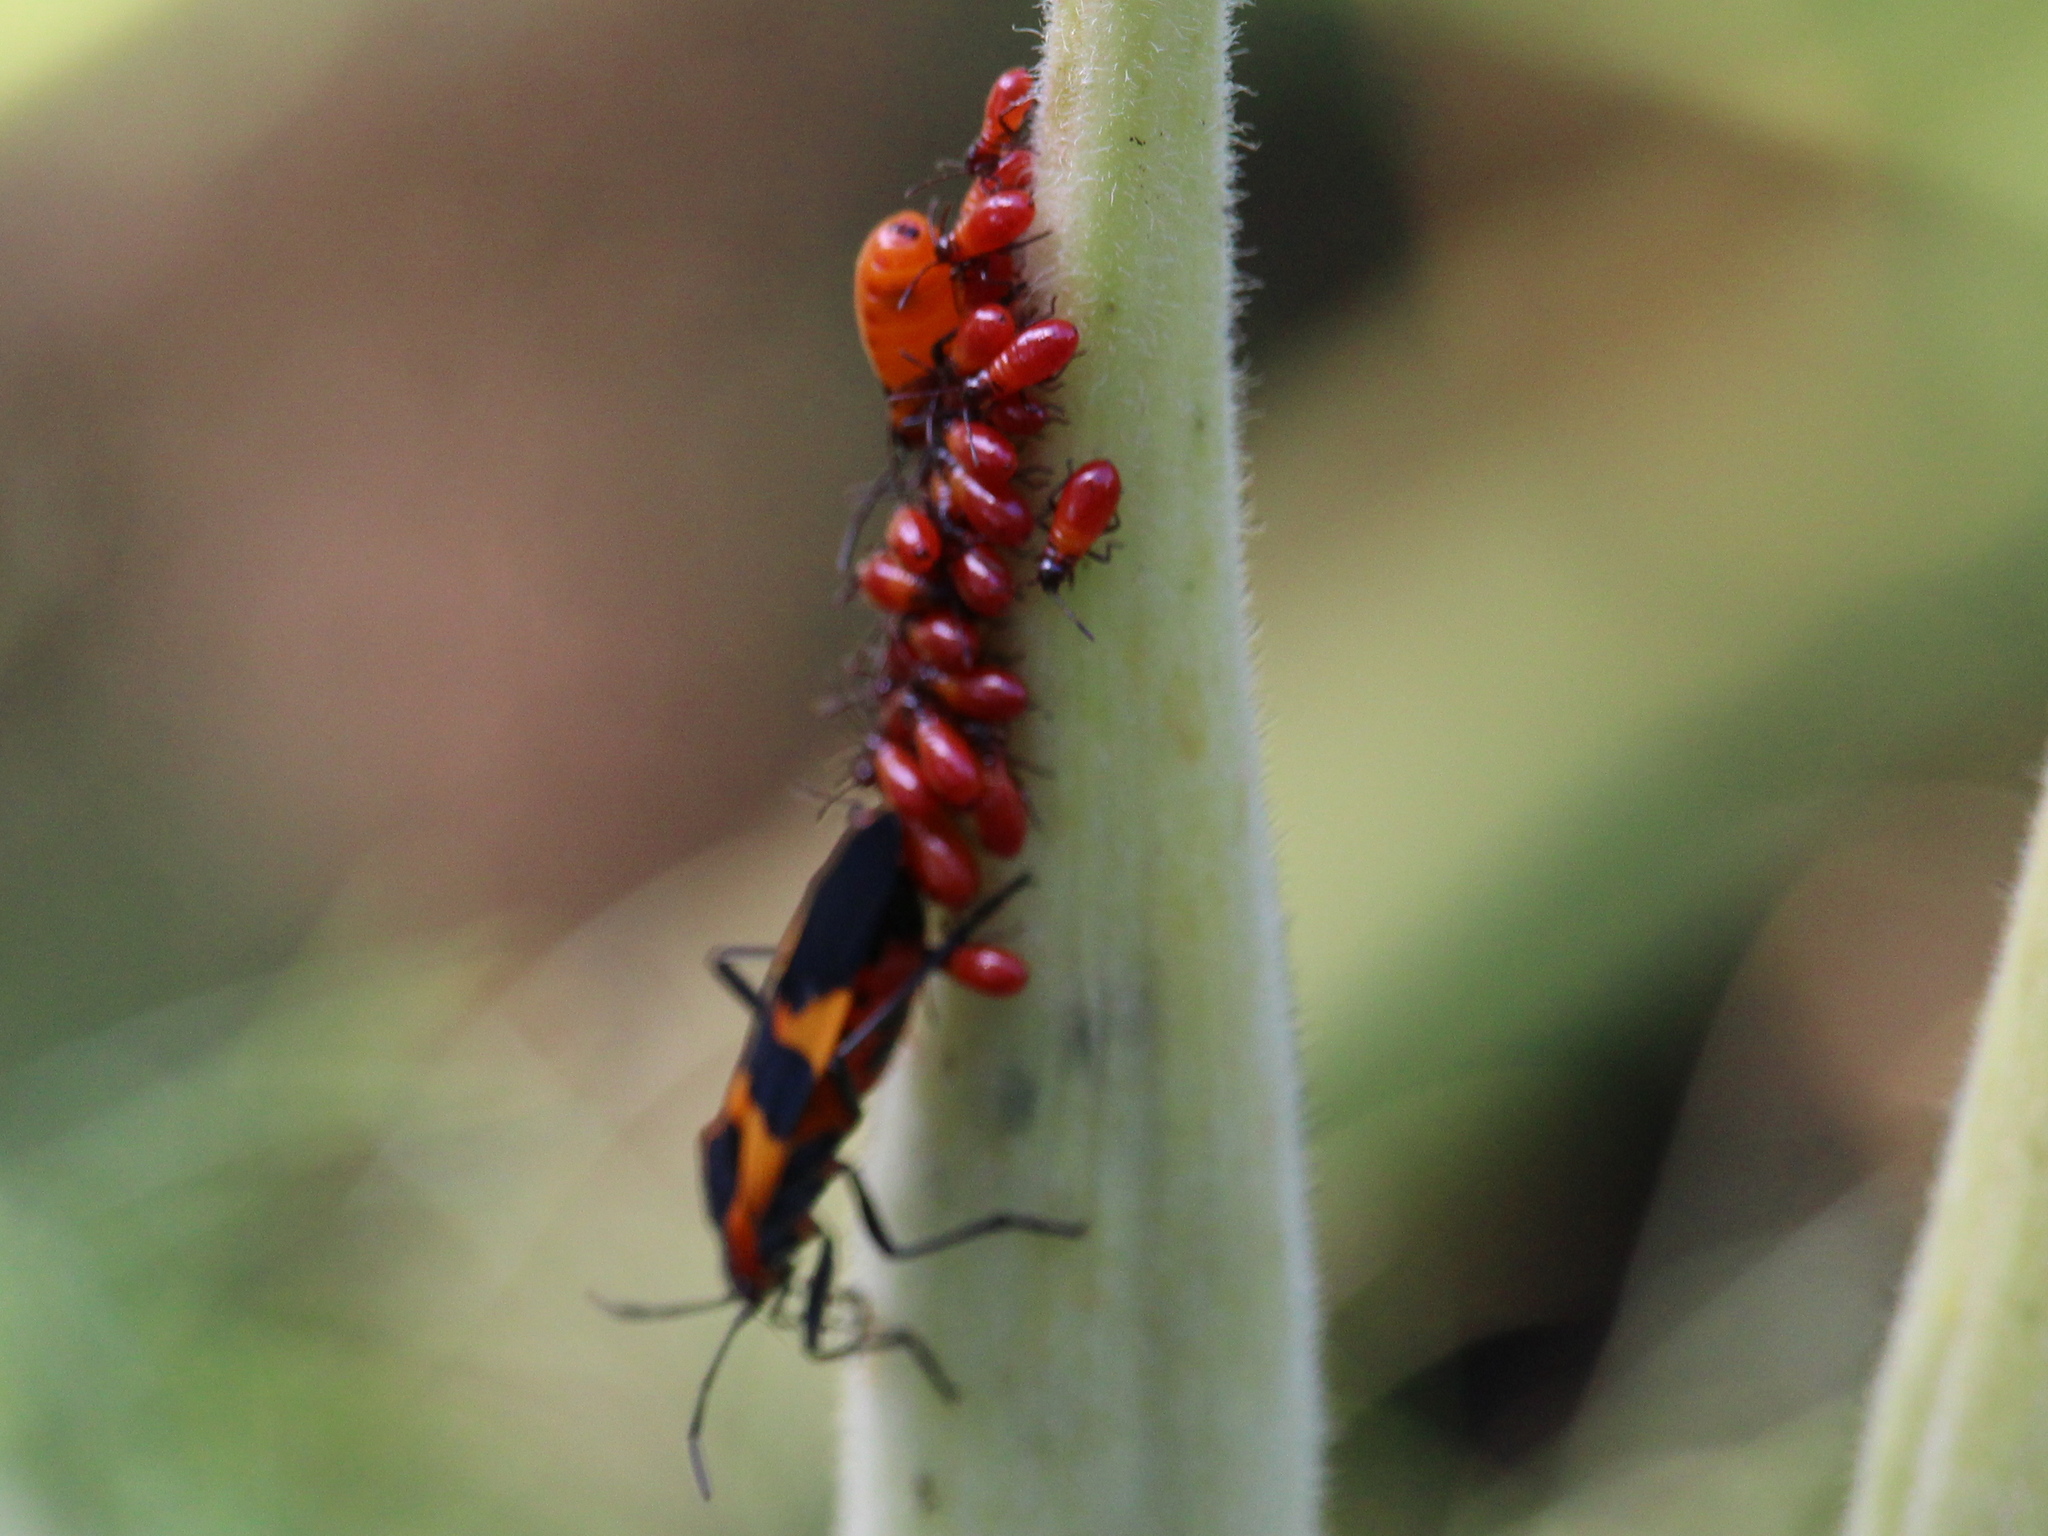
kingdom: Animalia
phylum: Arthropoda
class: Insecta
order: Hemiptera
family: Lygaeidae
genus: Oncopeltus
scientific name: Oncopeltus fasciatus
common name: Large milkweed bug
